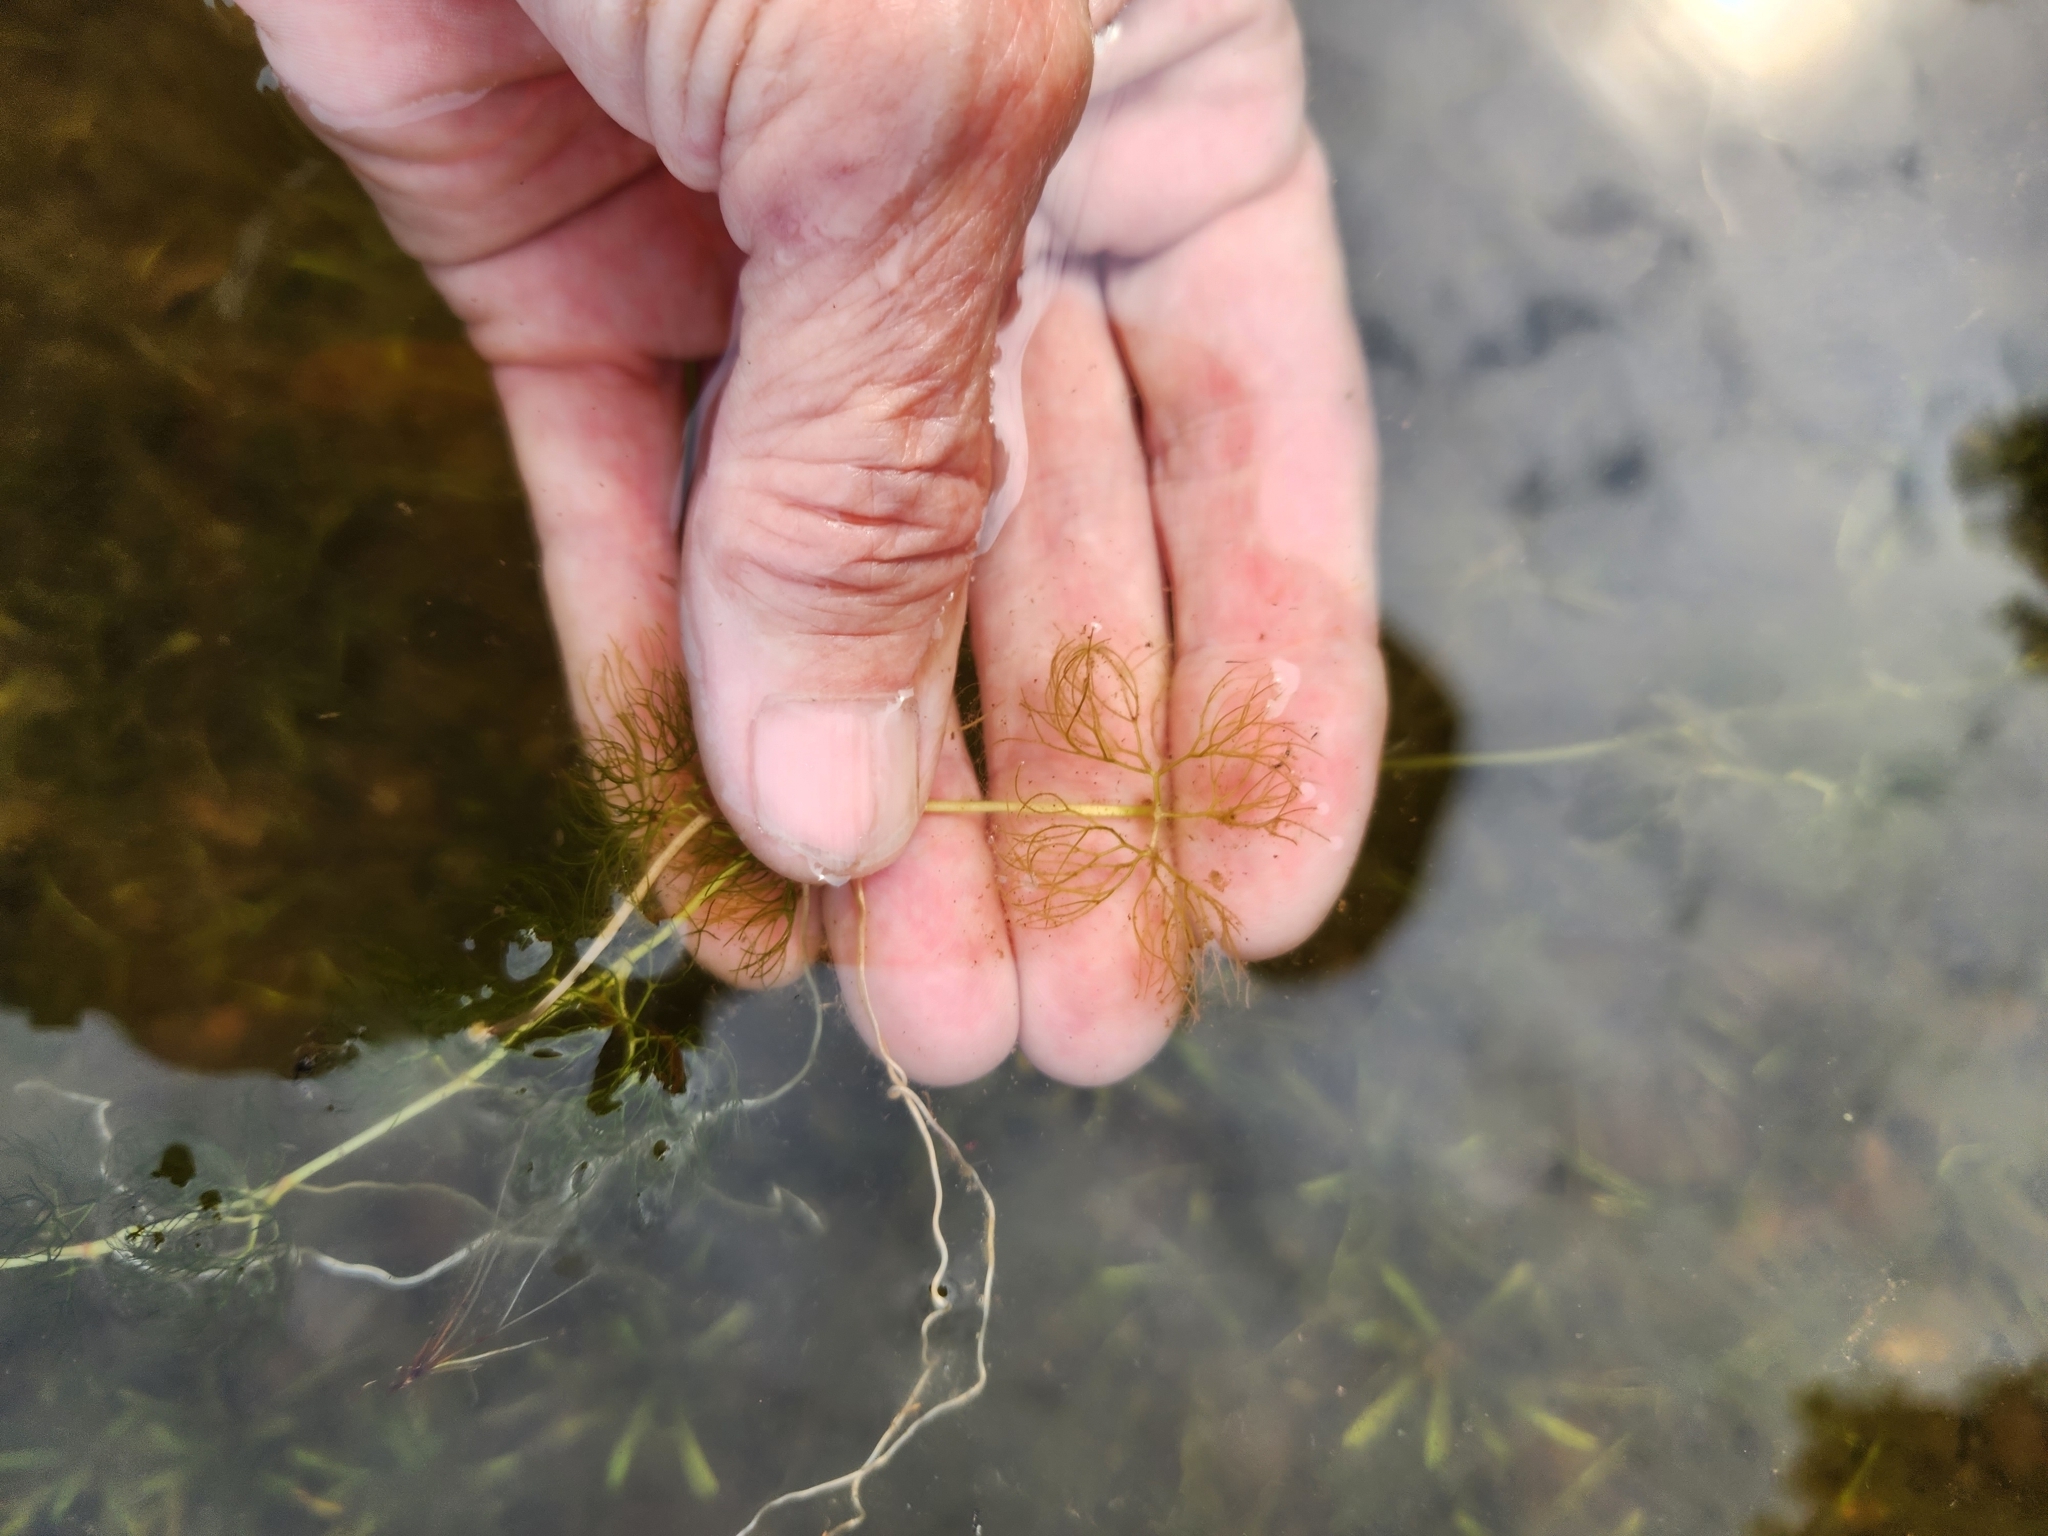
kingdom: Plantae
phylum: Tracheophyta
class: Magnoliopsida
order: Ranunculales
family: Ranunculaceae
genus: Ranunculus
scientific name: Ranunculus aquatilis
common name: Common water-crowfoot
